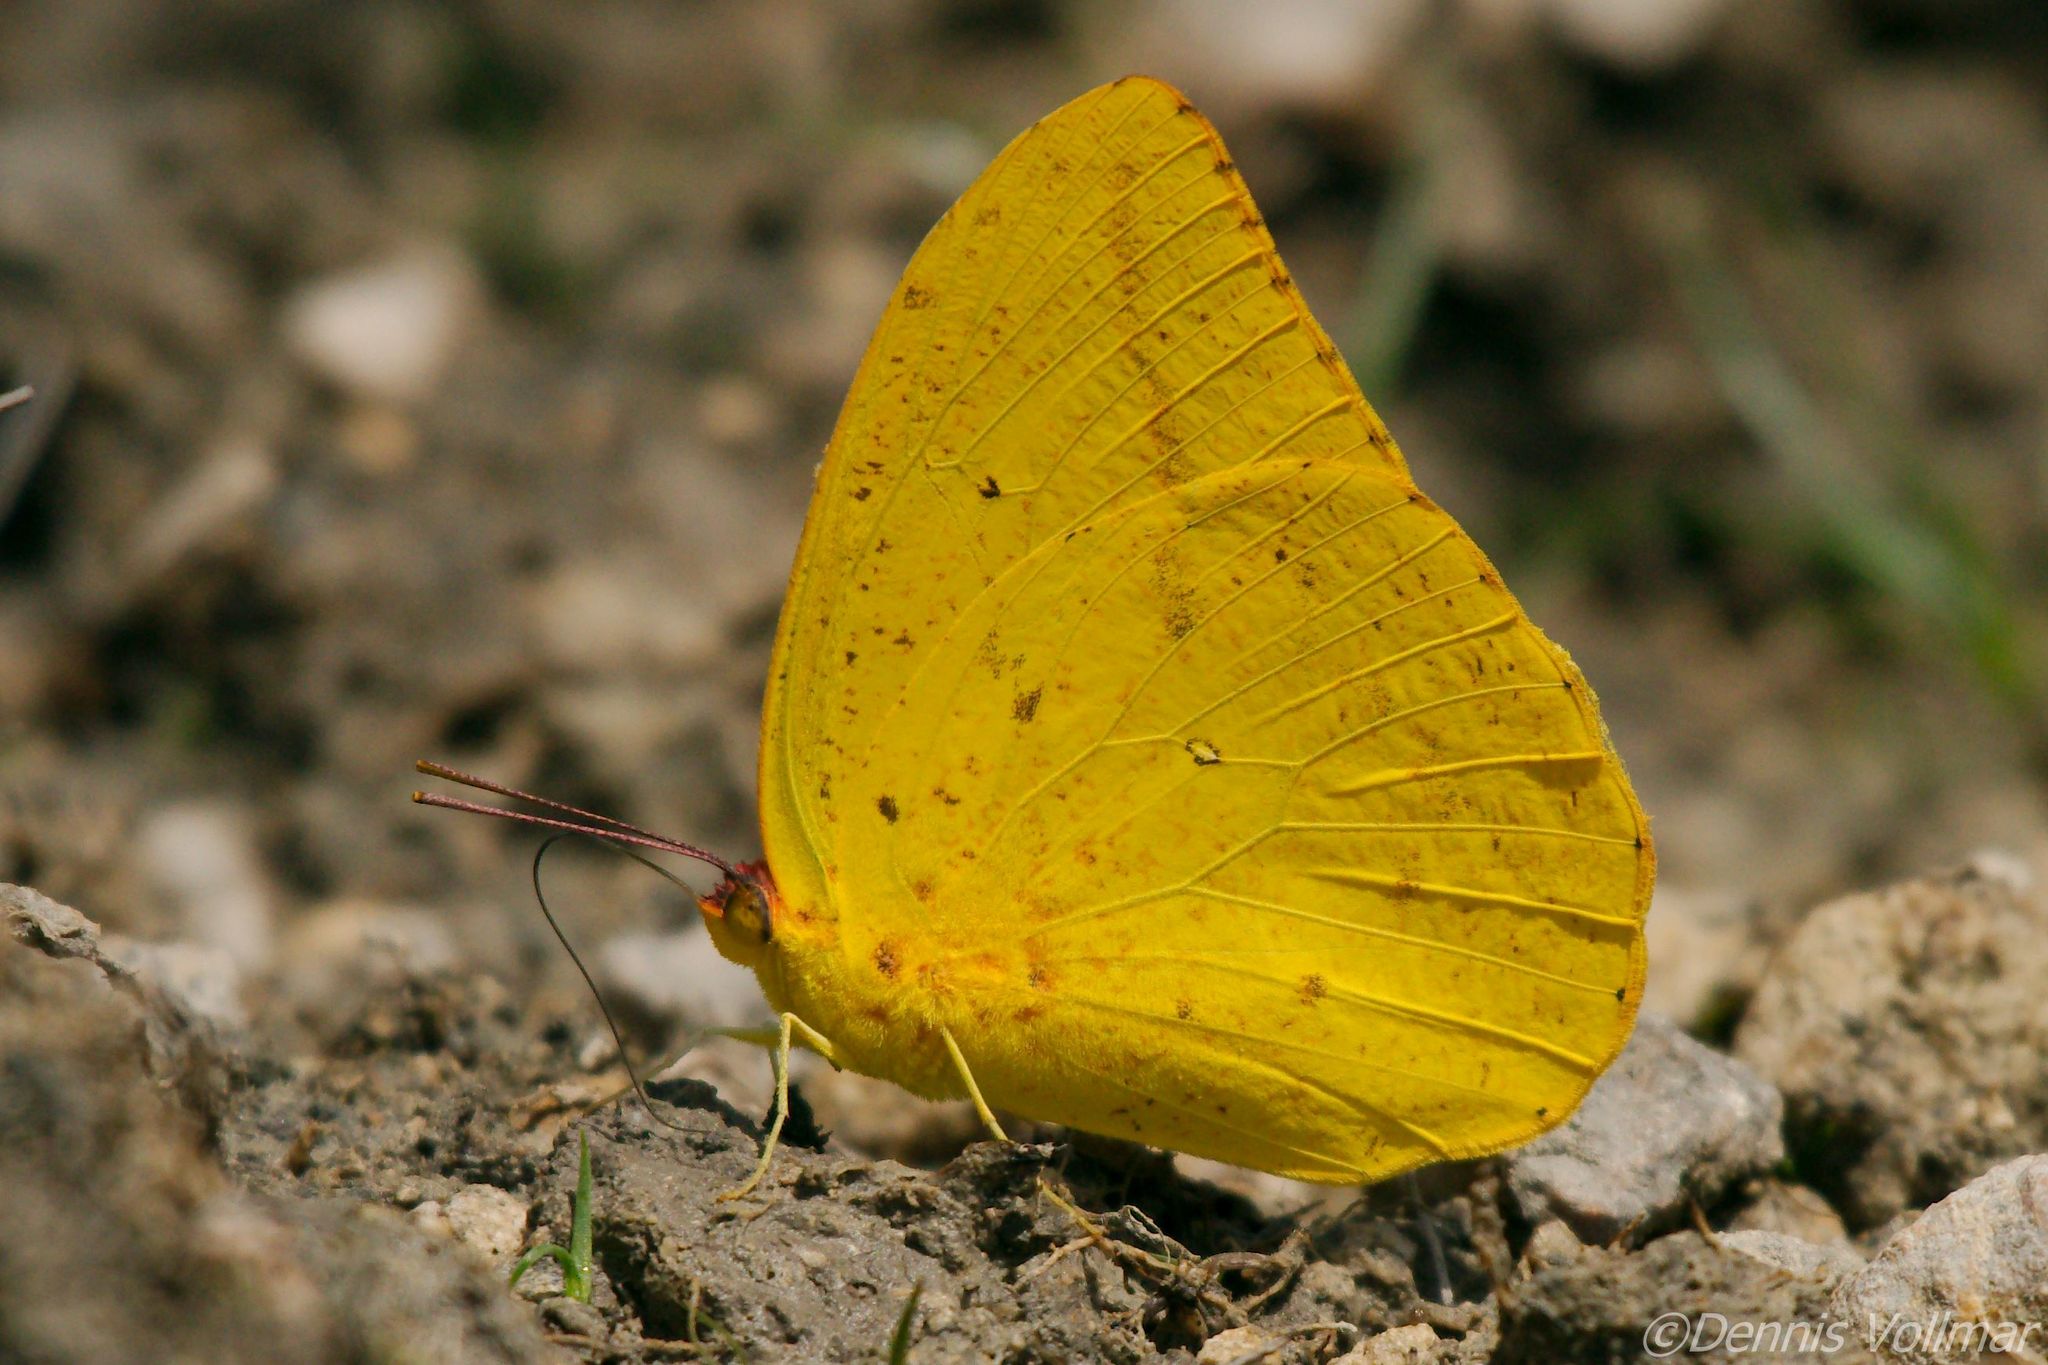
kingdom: Animalia
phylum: Arthropoda
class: Insecta
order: Lepidoptera
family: Pieridae
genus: Phoebis
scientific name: Phoebis agarithe
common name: Large orange sulphur
